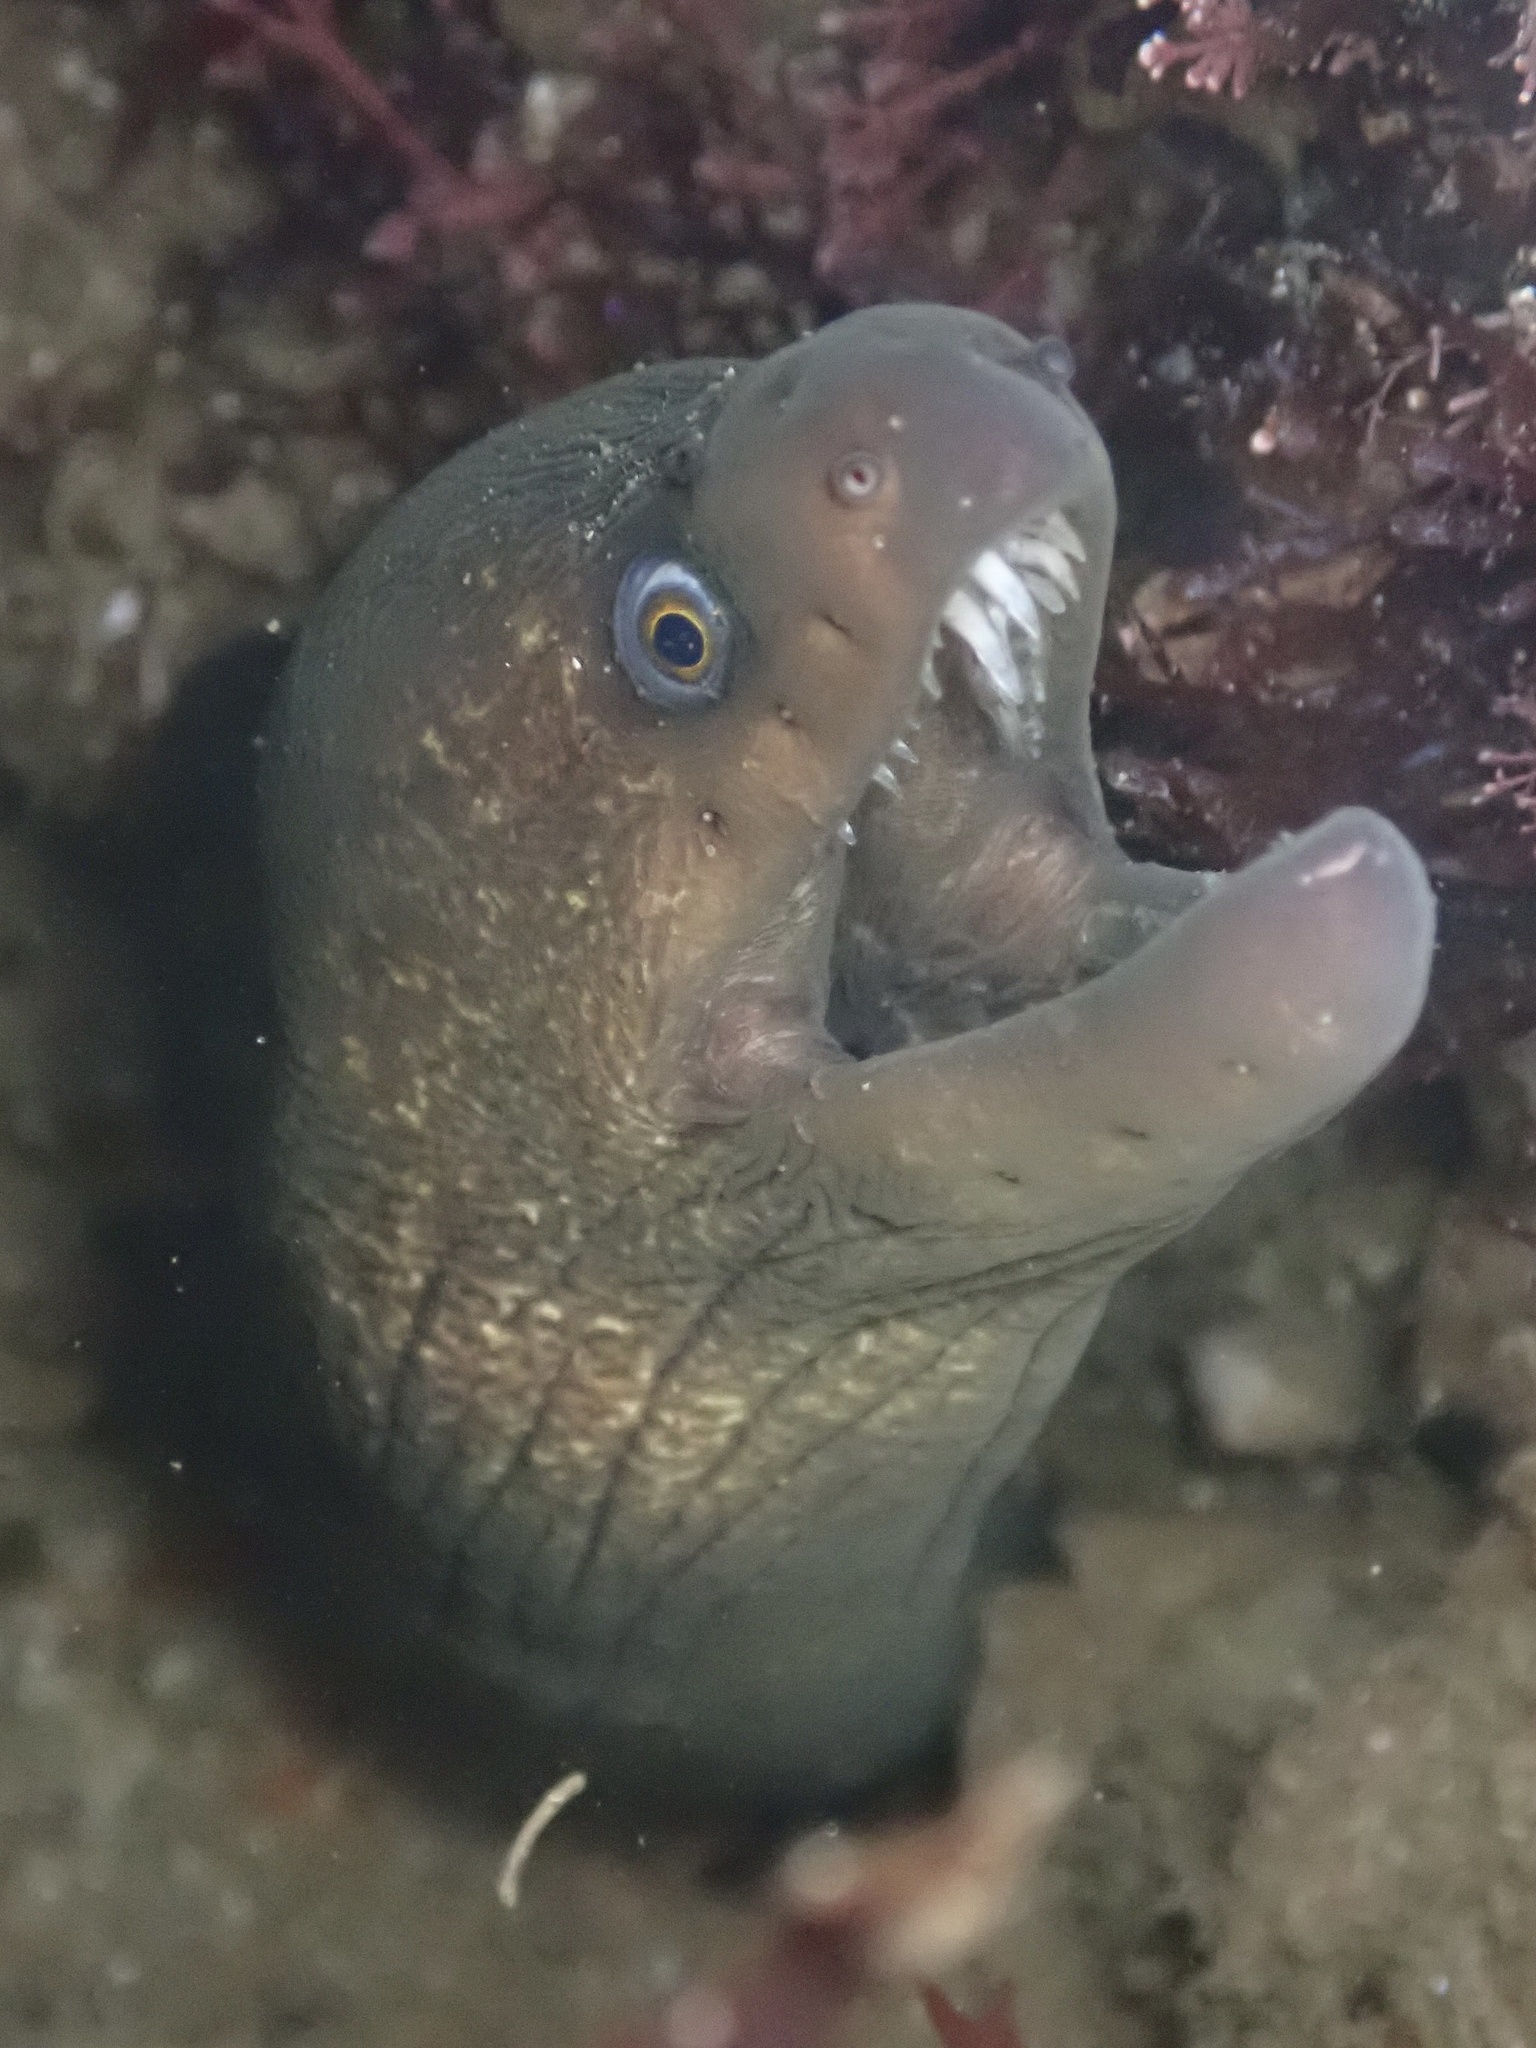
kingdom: Animalia
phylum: Chordata
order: Anguilliformes
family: Muraenidae
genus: Gymnothorax
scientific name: Gymnothorax mordax
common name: California moray
